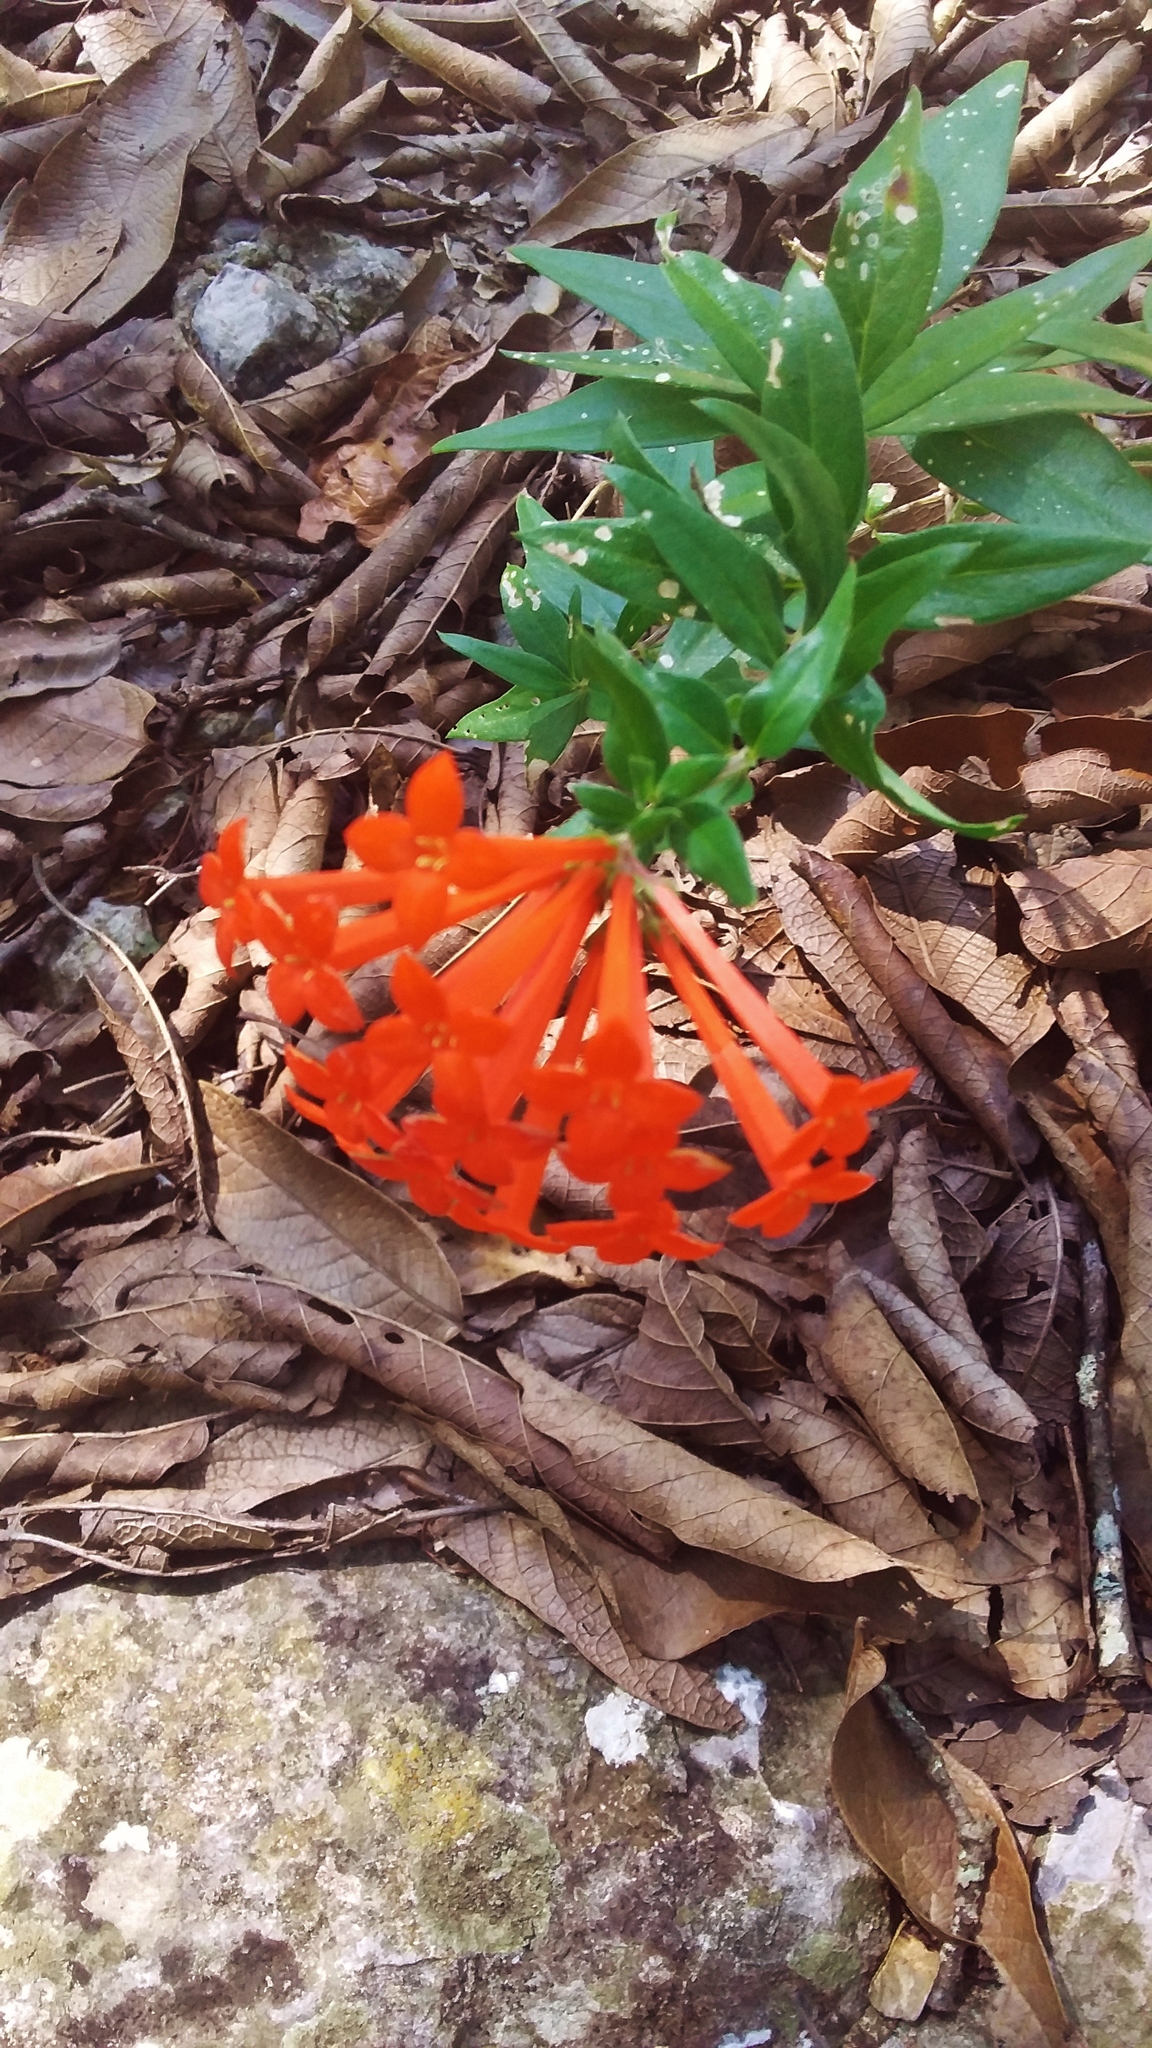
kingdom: Plantae
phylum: Tracheophyta
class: Magnoliopsida
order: Gentianales
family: Rubiaceae
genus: Bouvardia
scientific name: Bouvardia ternifolia
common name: Scarlet bouvardia
